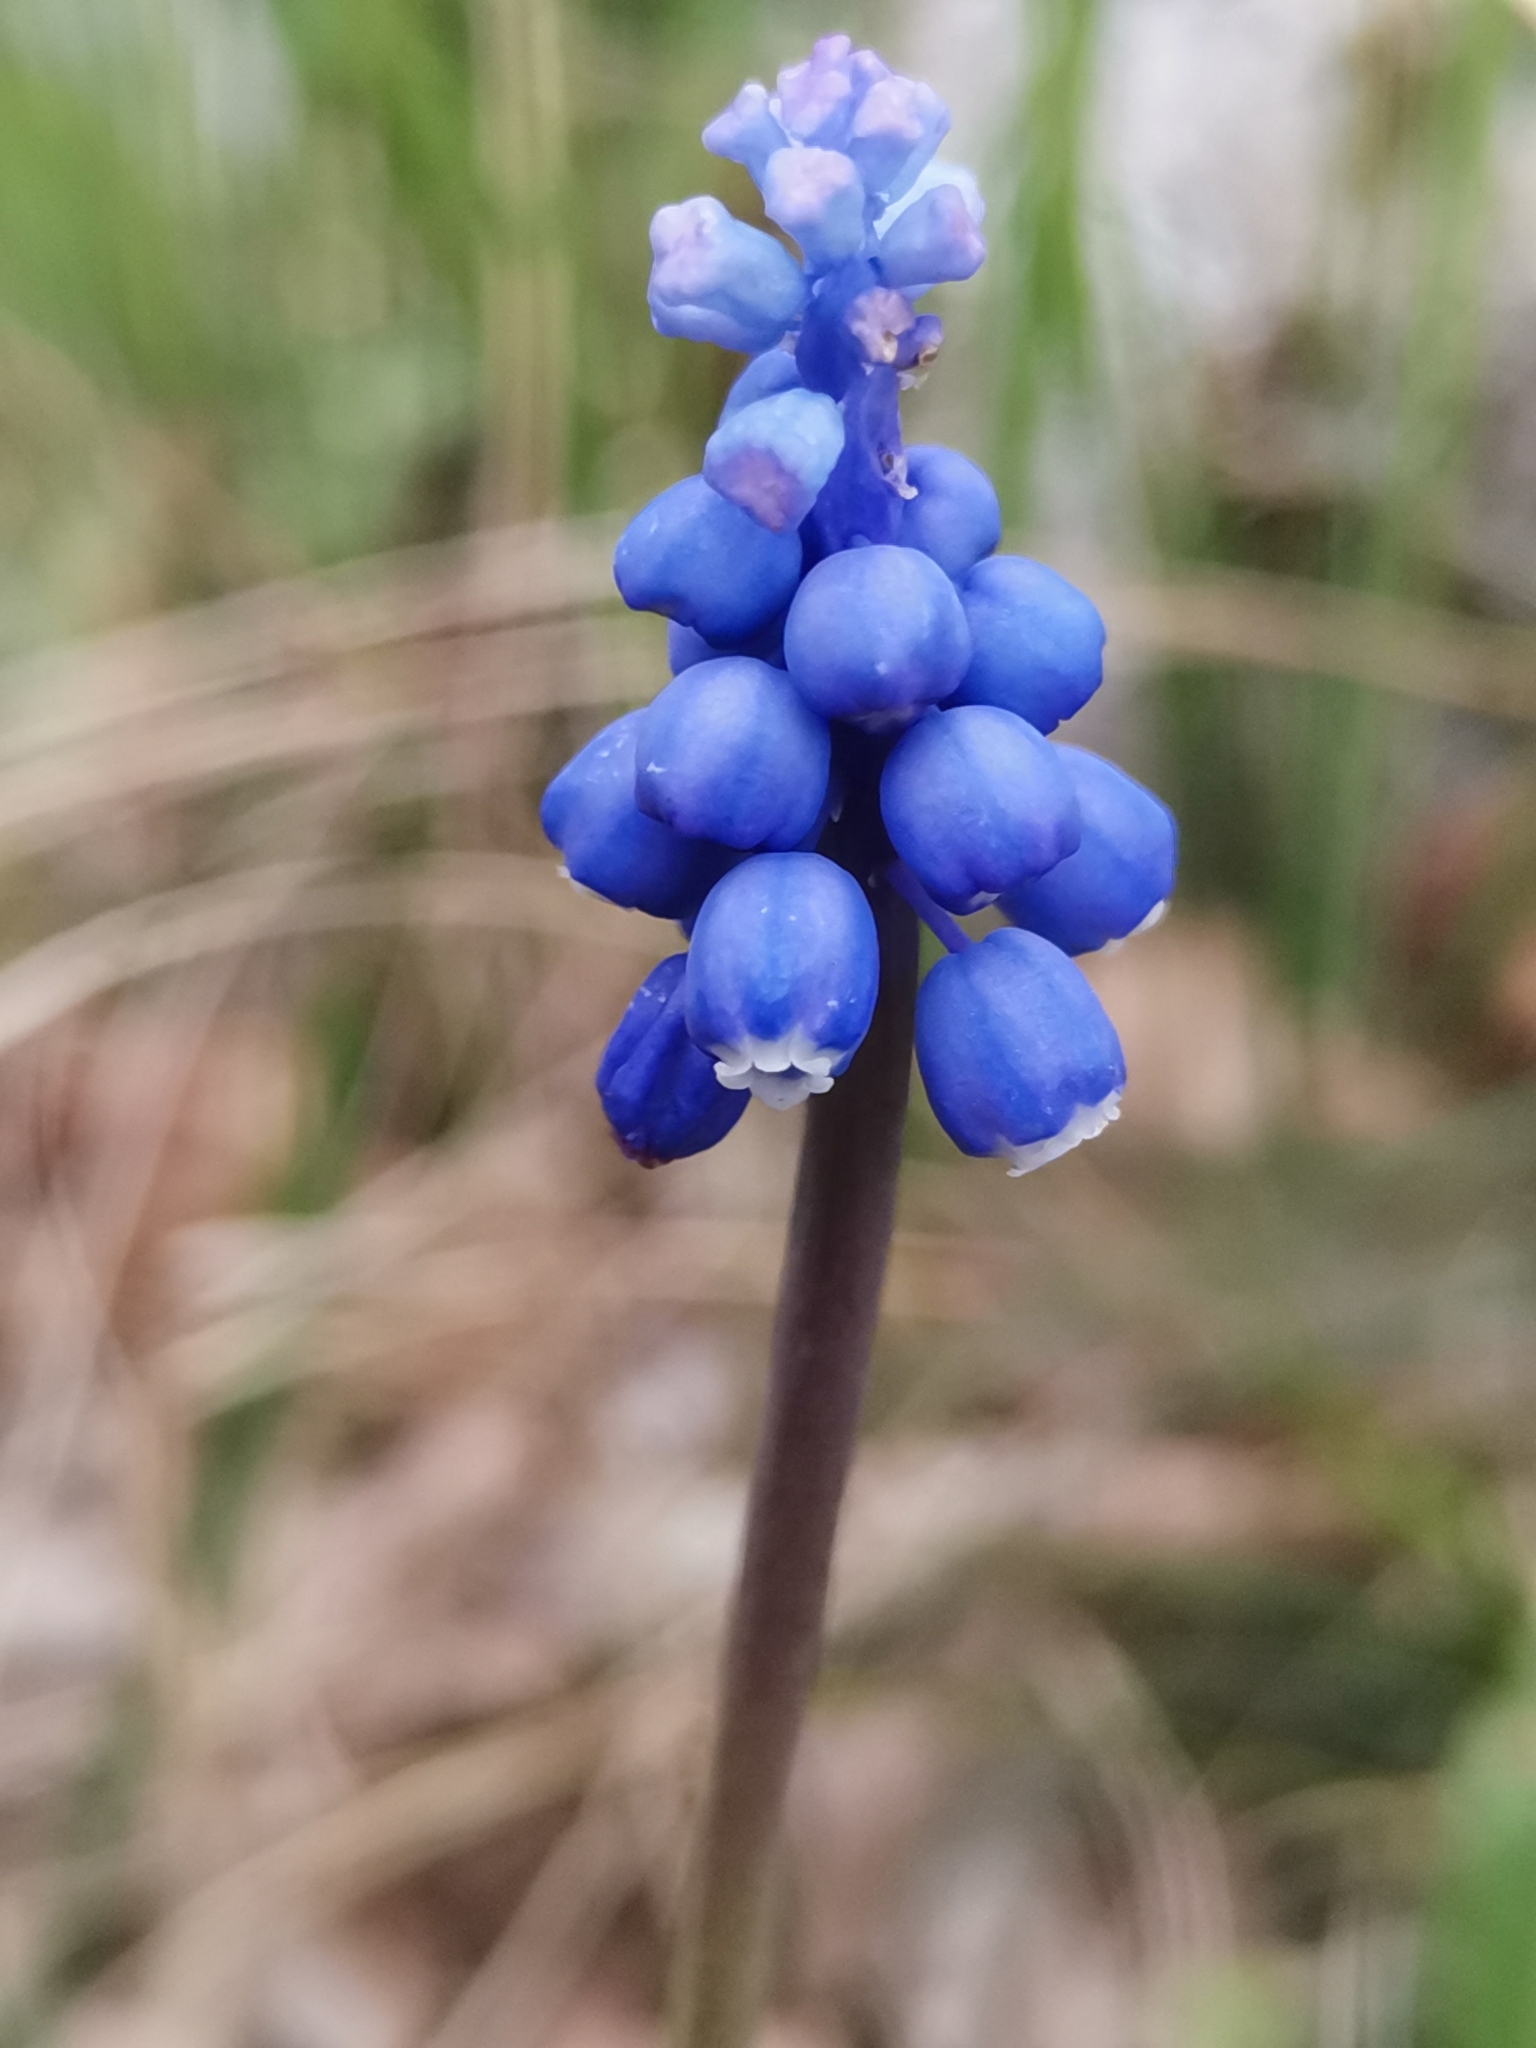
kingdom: Plantae
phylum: Tracheophyta
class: Liliopsida
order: Asparagales
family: Asparagaceae
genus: Muscari
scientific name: Muscari botryoides
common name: Compact grape-hyacinth
